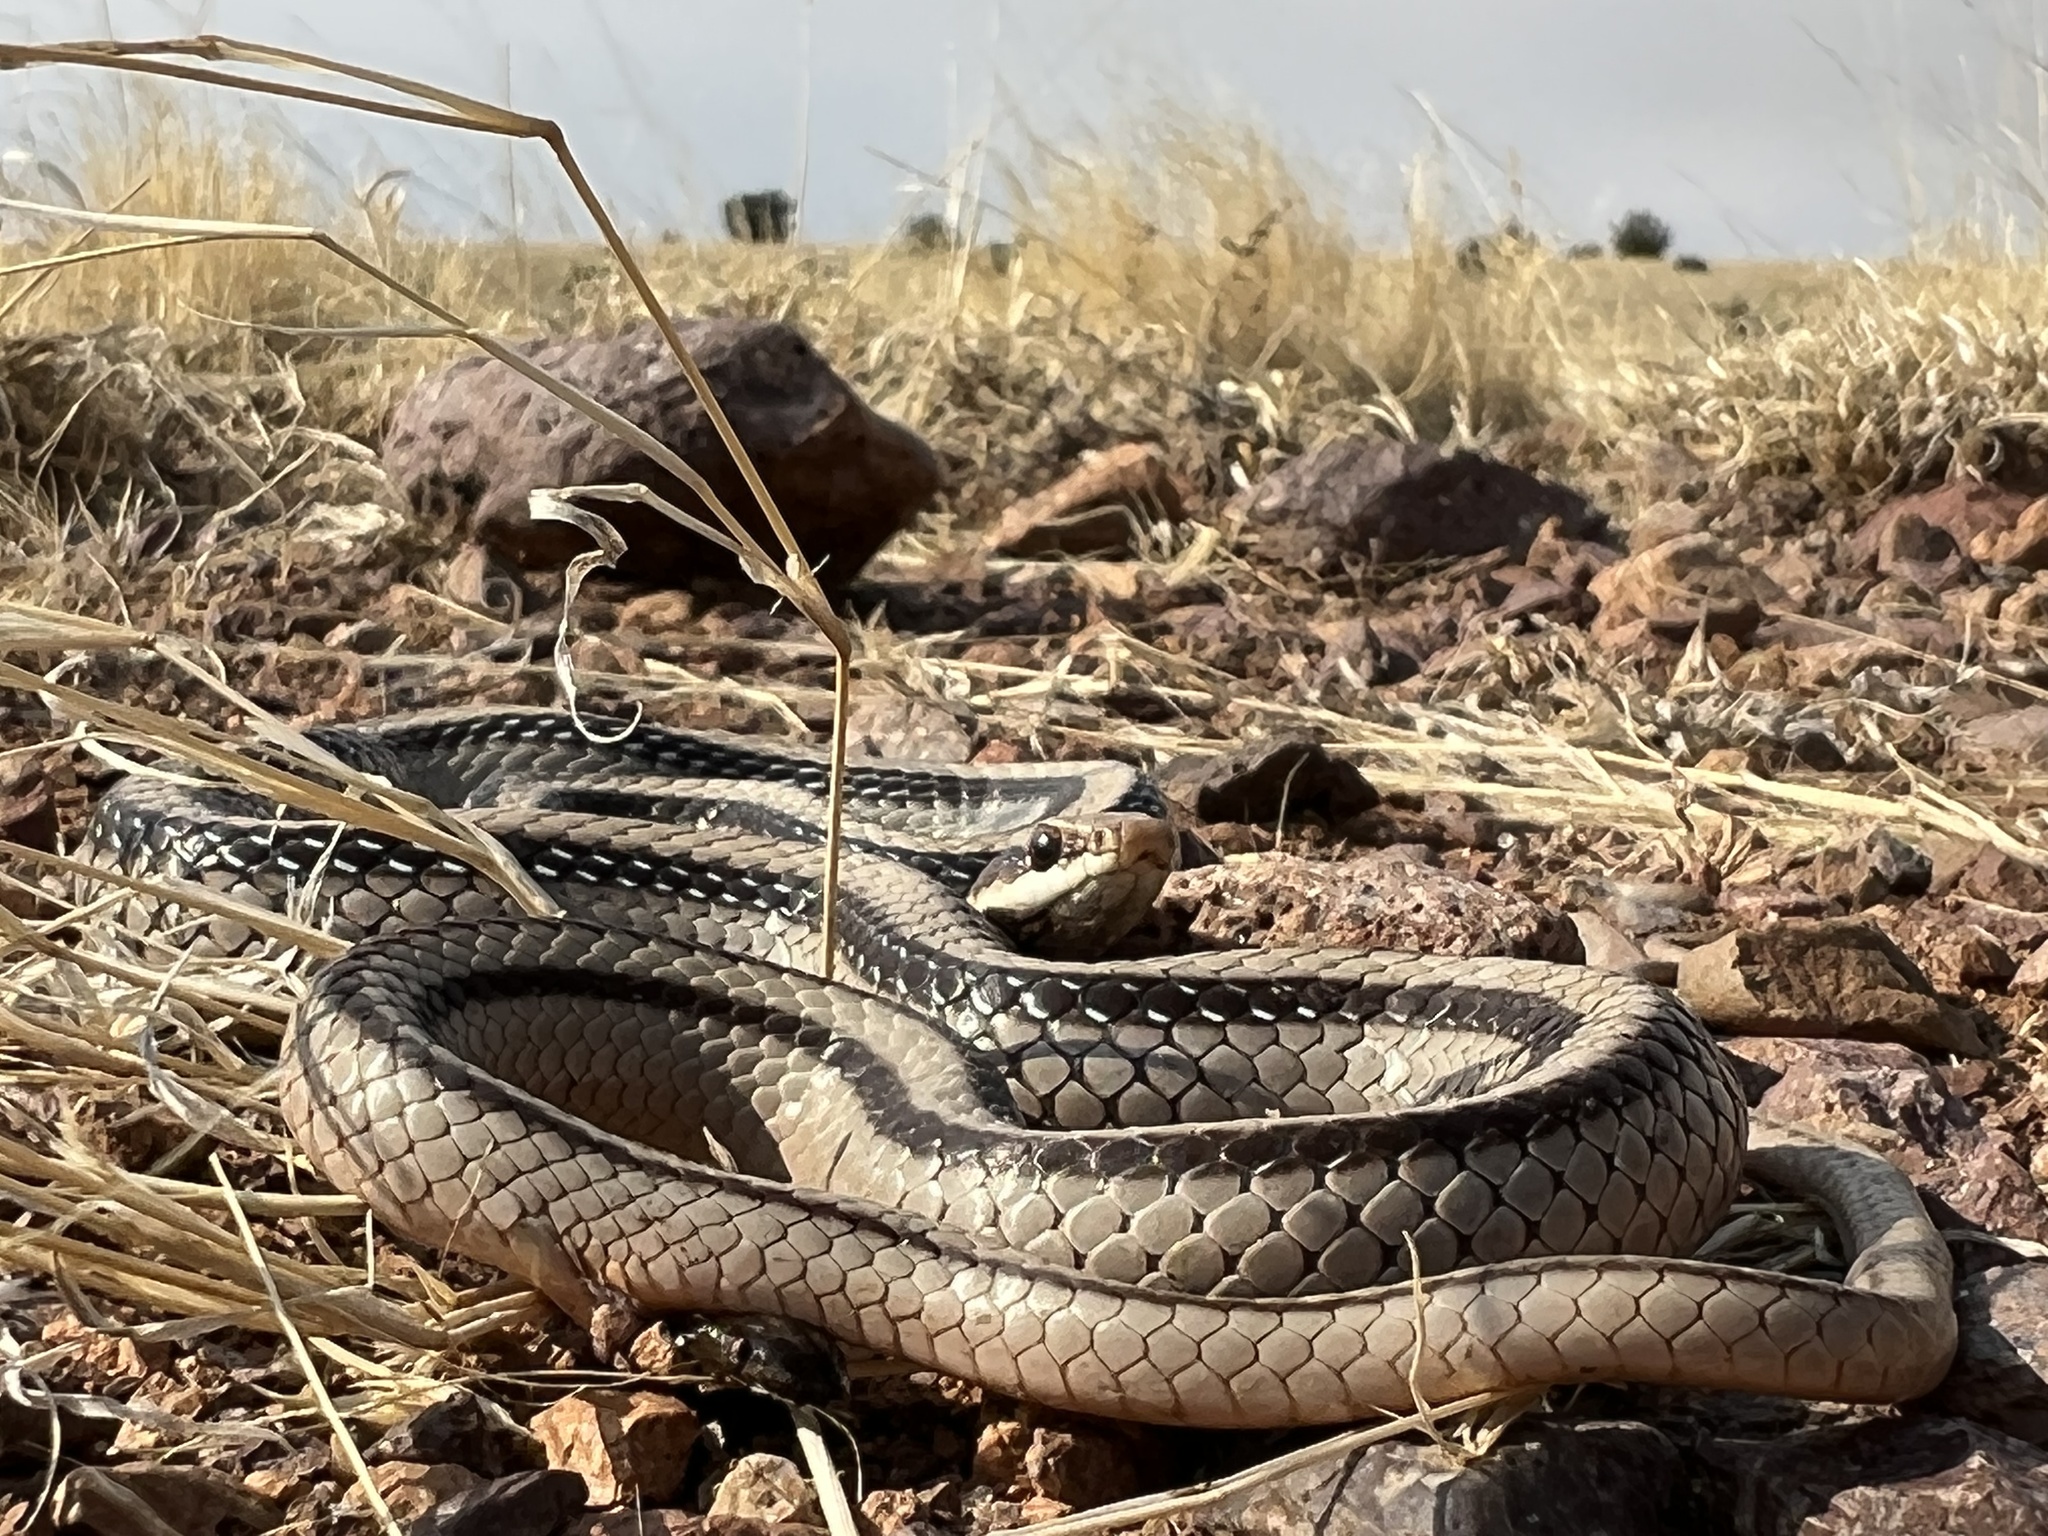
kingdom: Animalia
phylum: Chordata
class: Squamata
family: Colubridae
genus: Salvadora
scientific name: Salvadora grahamiae
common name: Mountain patchnose snake
